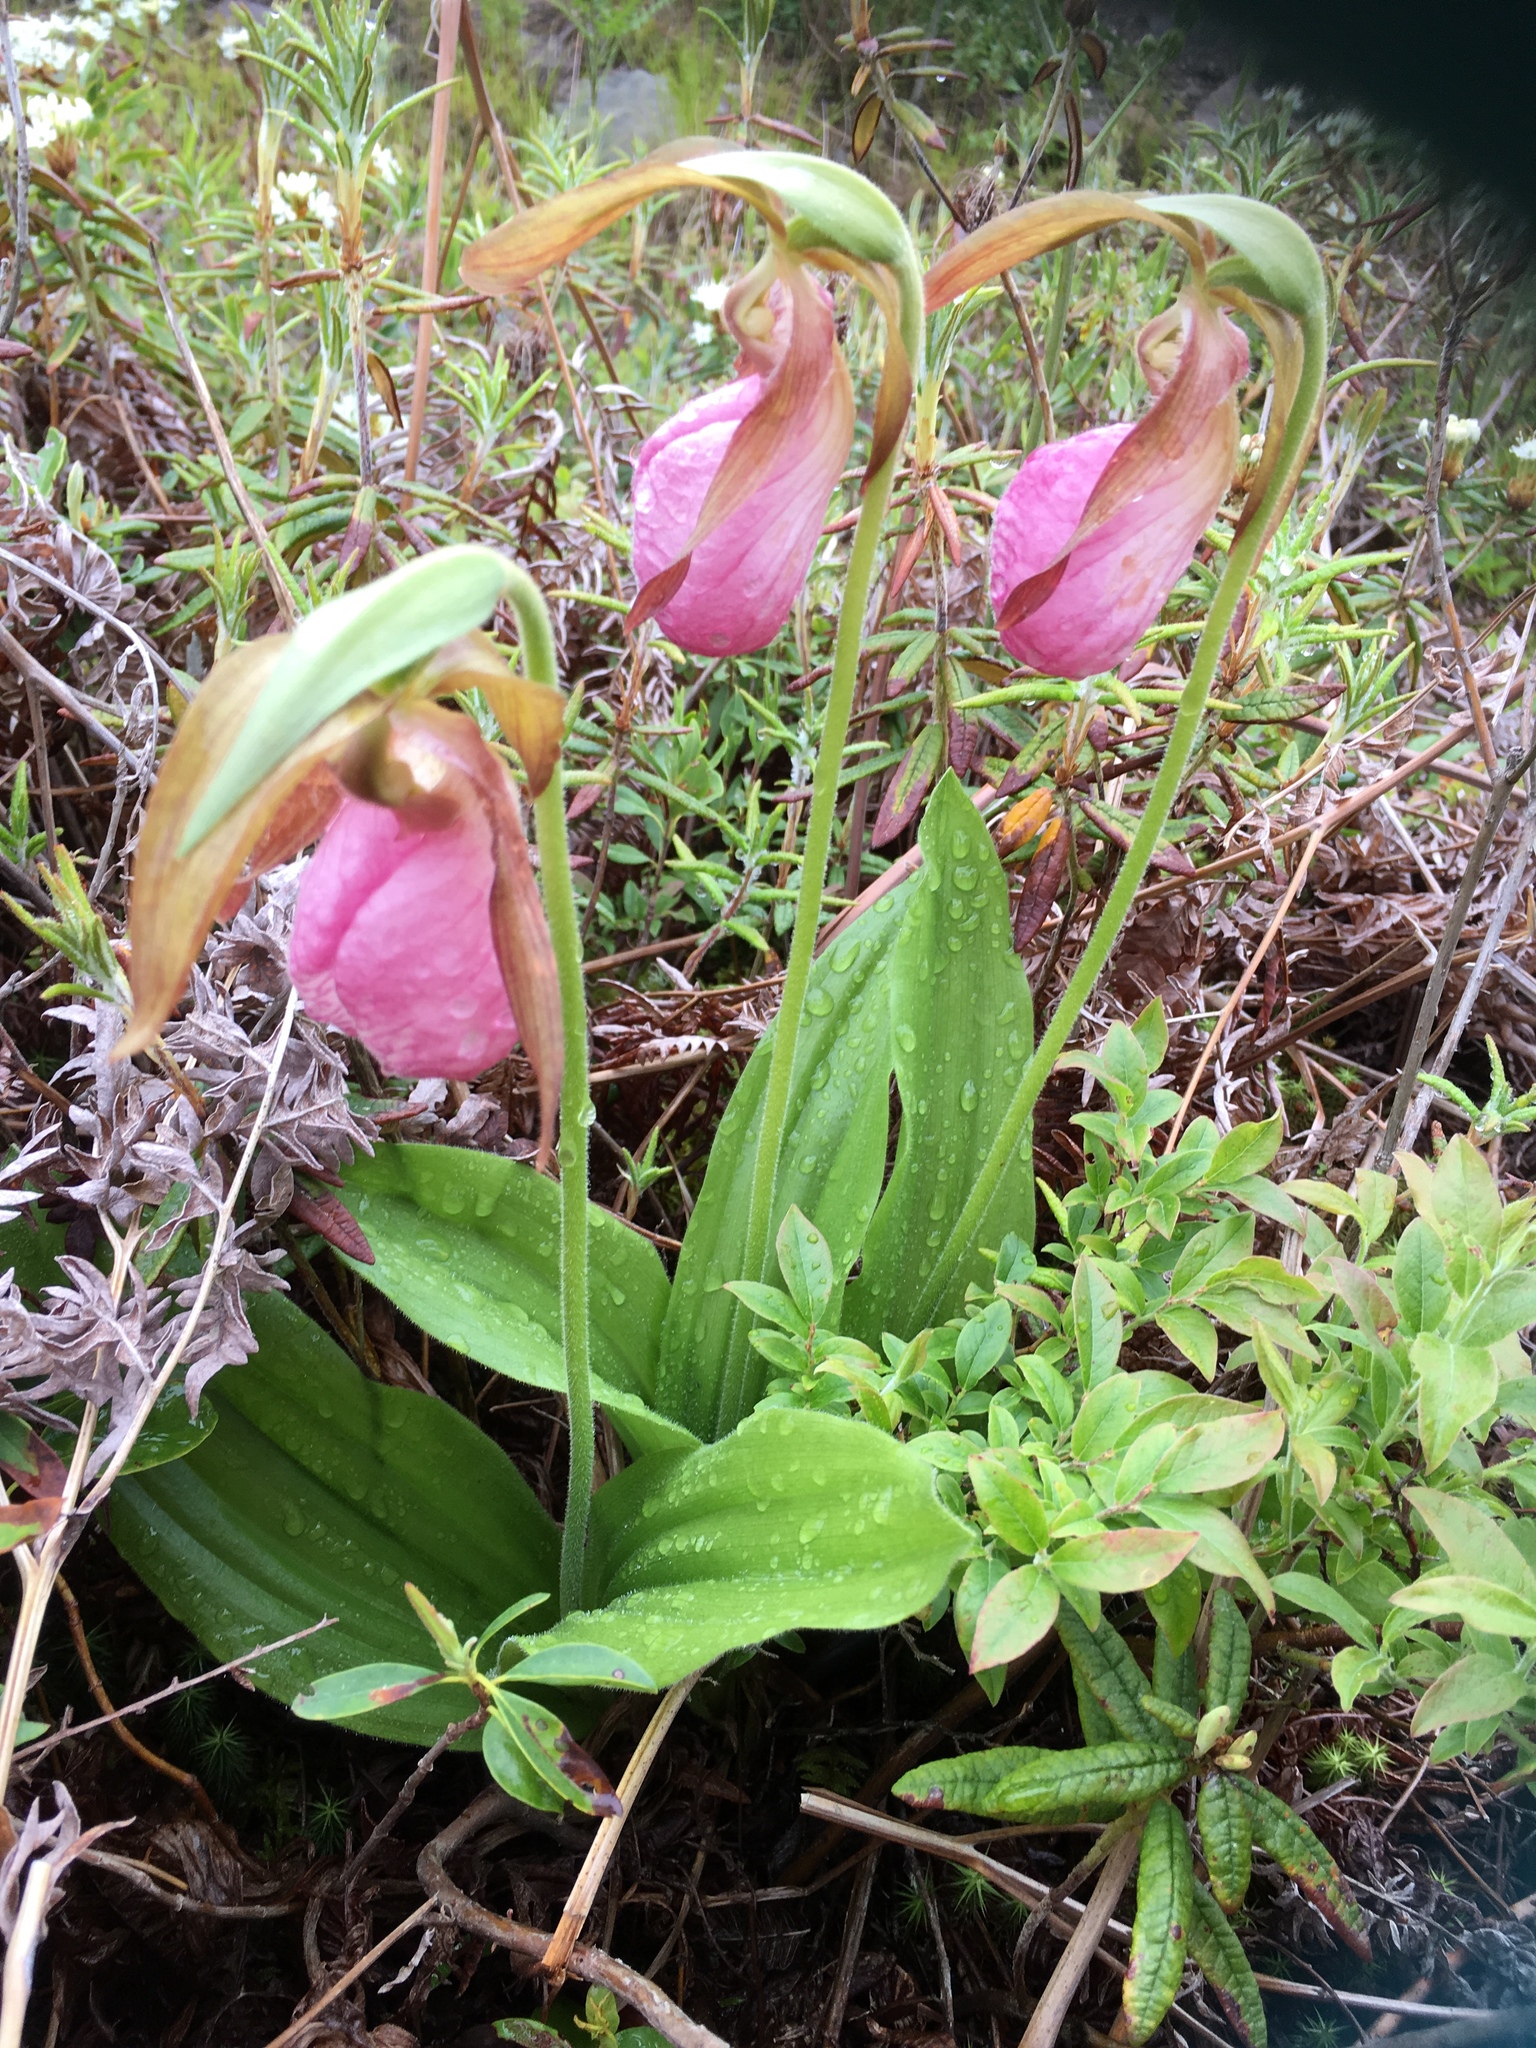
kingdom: Plantae
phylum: Tracheophyta
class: Liliopsida
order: Asparagales
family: Orchidaceae
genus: Cypripedium
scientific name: Cypripedium acaule
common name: Pink lady's-slipper
